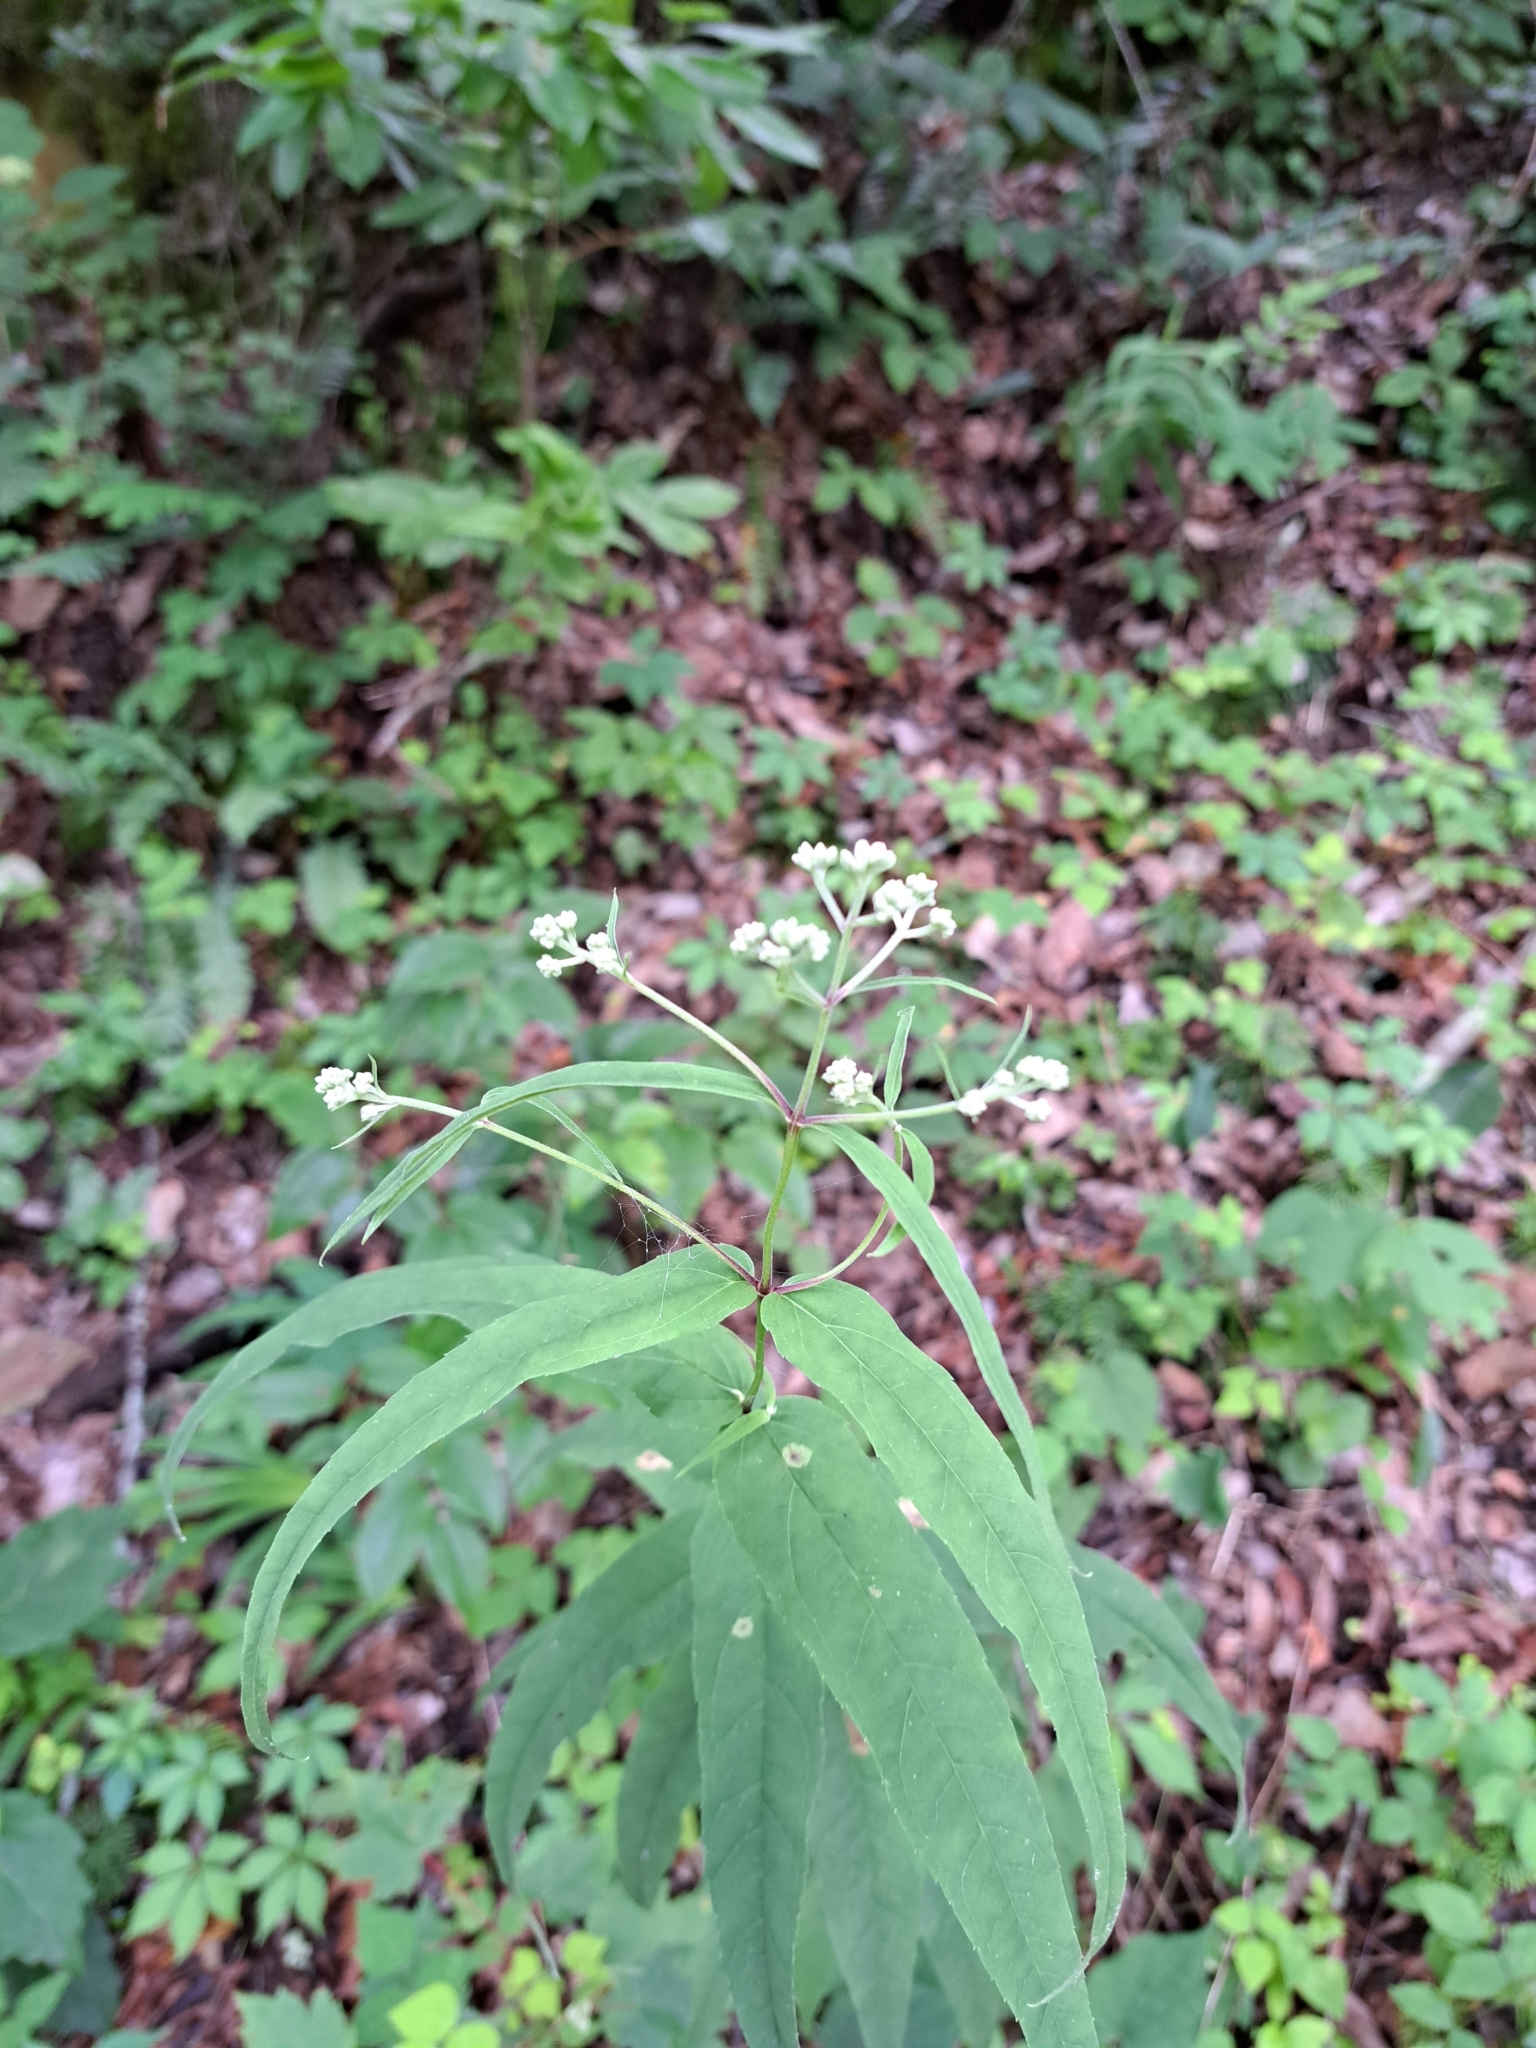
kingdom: Plantae
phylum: Tracheophyta
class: Magnoliopsida
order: Asterales
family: Asteraceae
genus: Eupatorium
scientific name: Eupatorium sessilifolium
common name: Upland boneset
